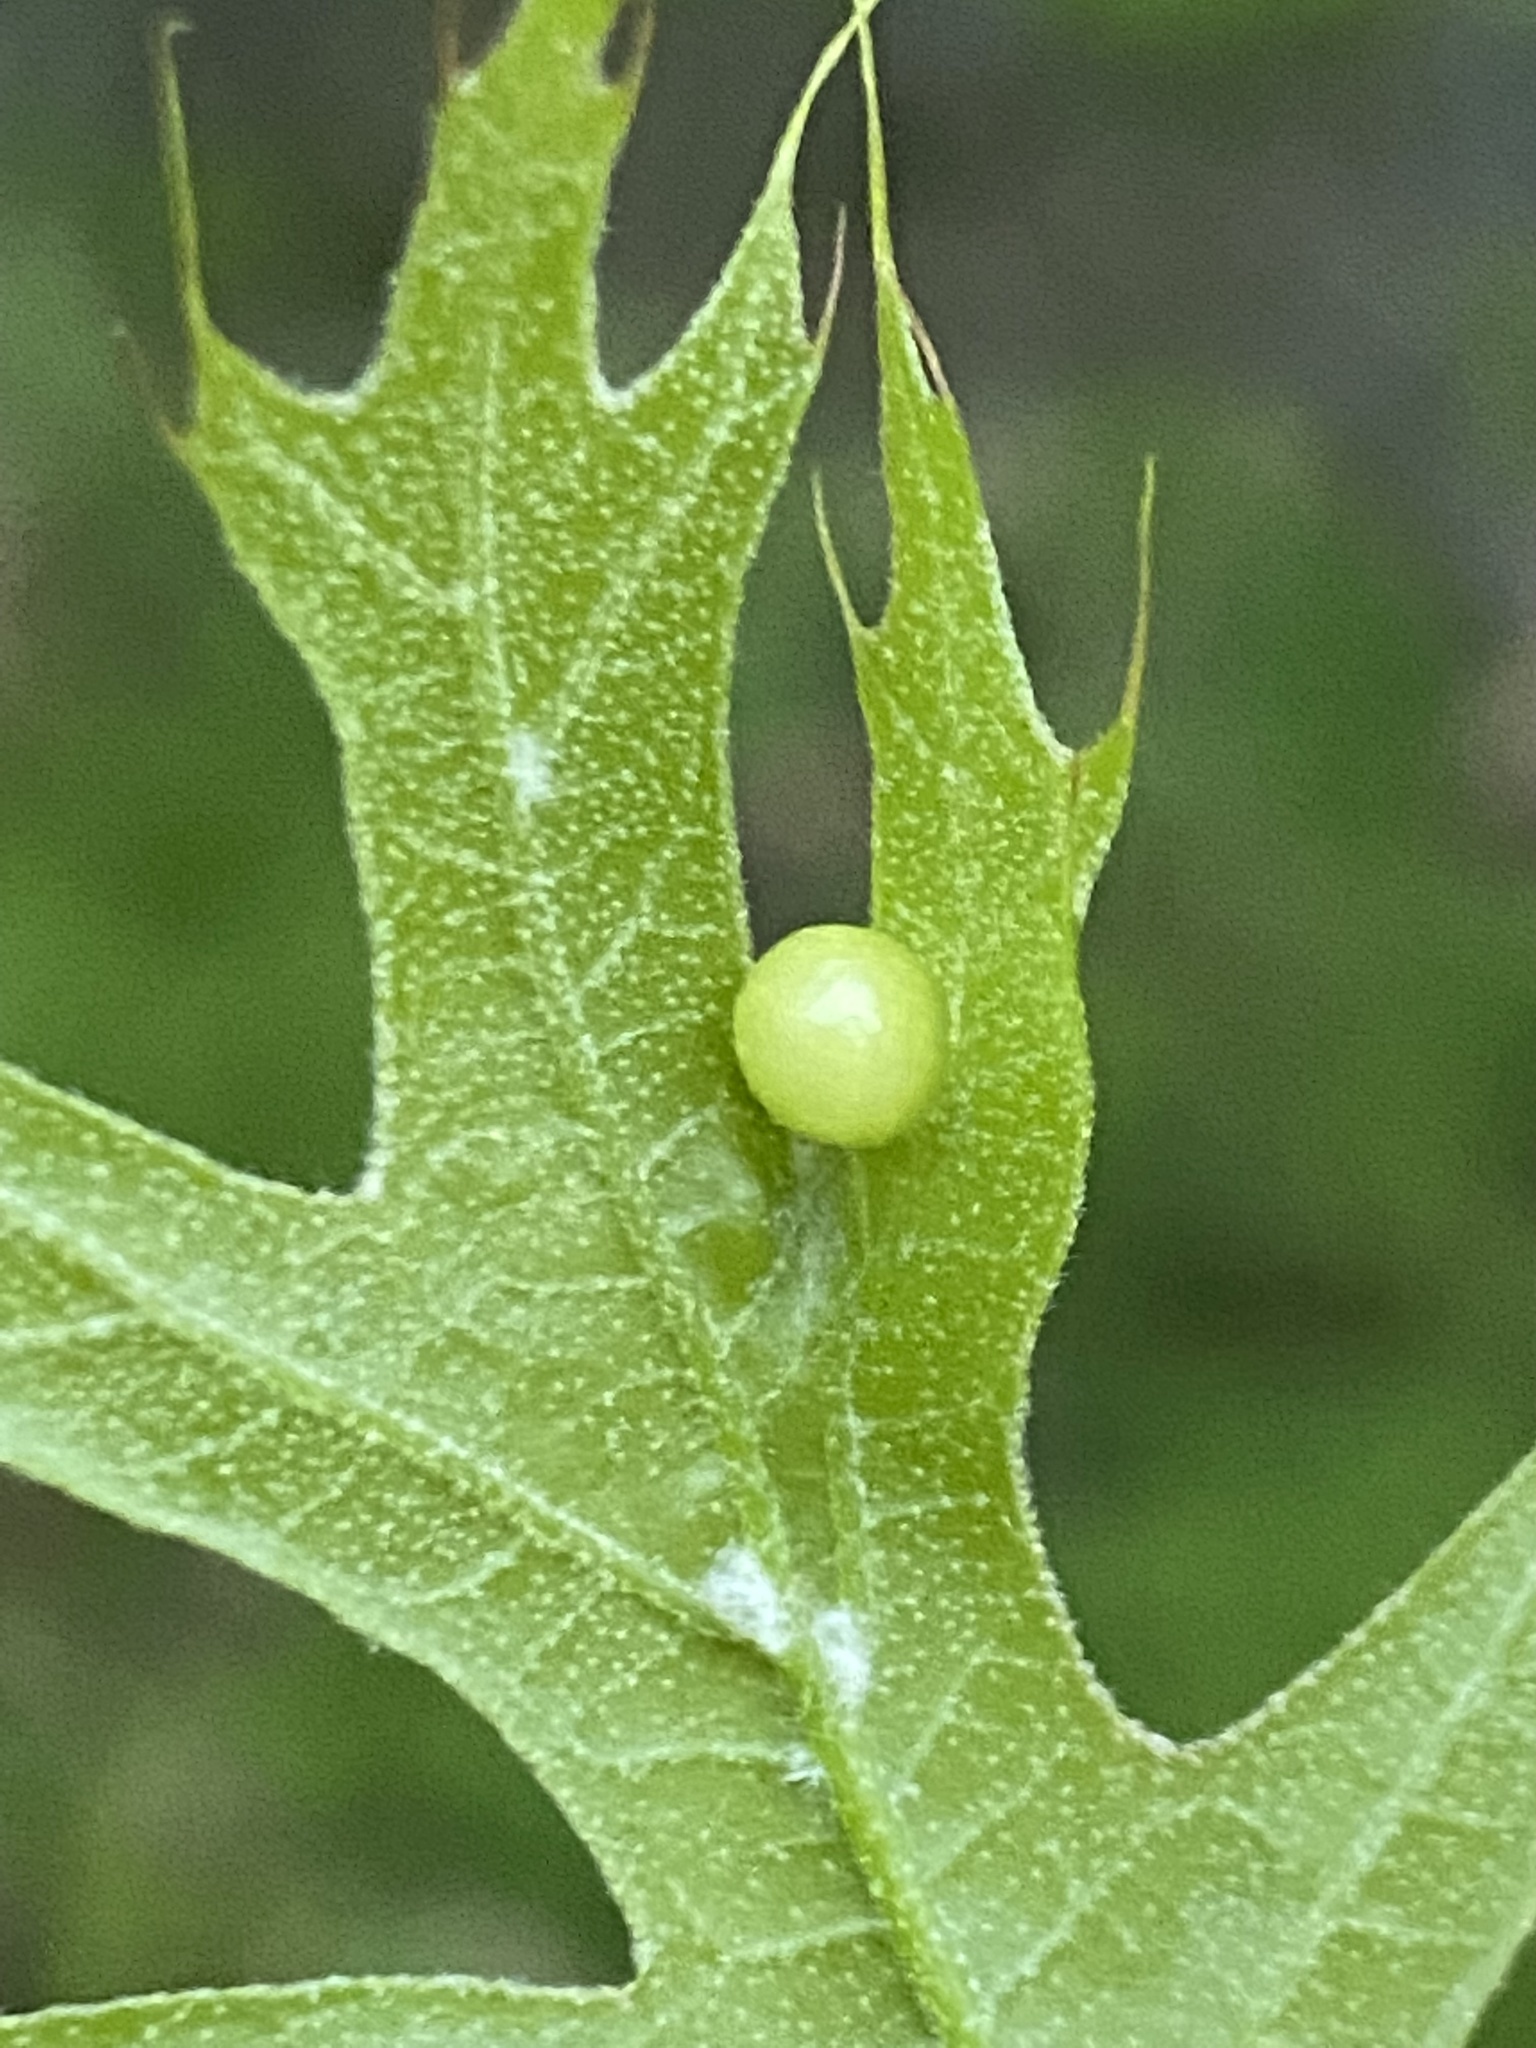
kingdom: Animalia
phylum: Arthropoda
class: Insecta
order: Hymenoptera
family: Cynipidae
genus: Amphibolips
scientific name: Amphibolips
